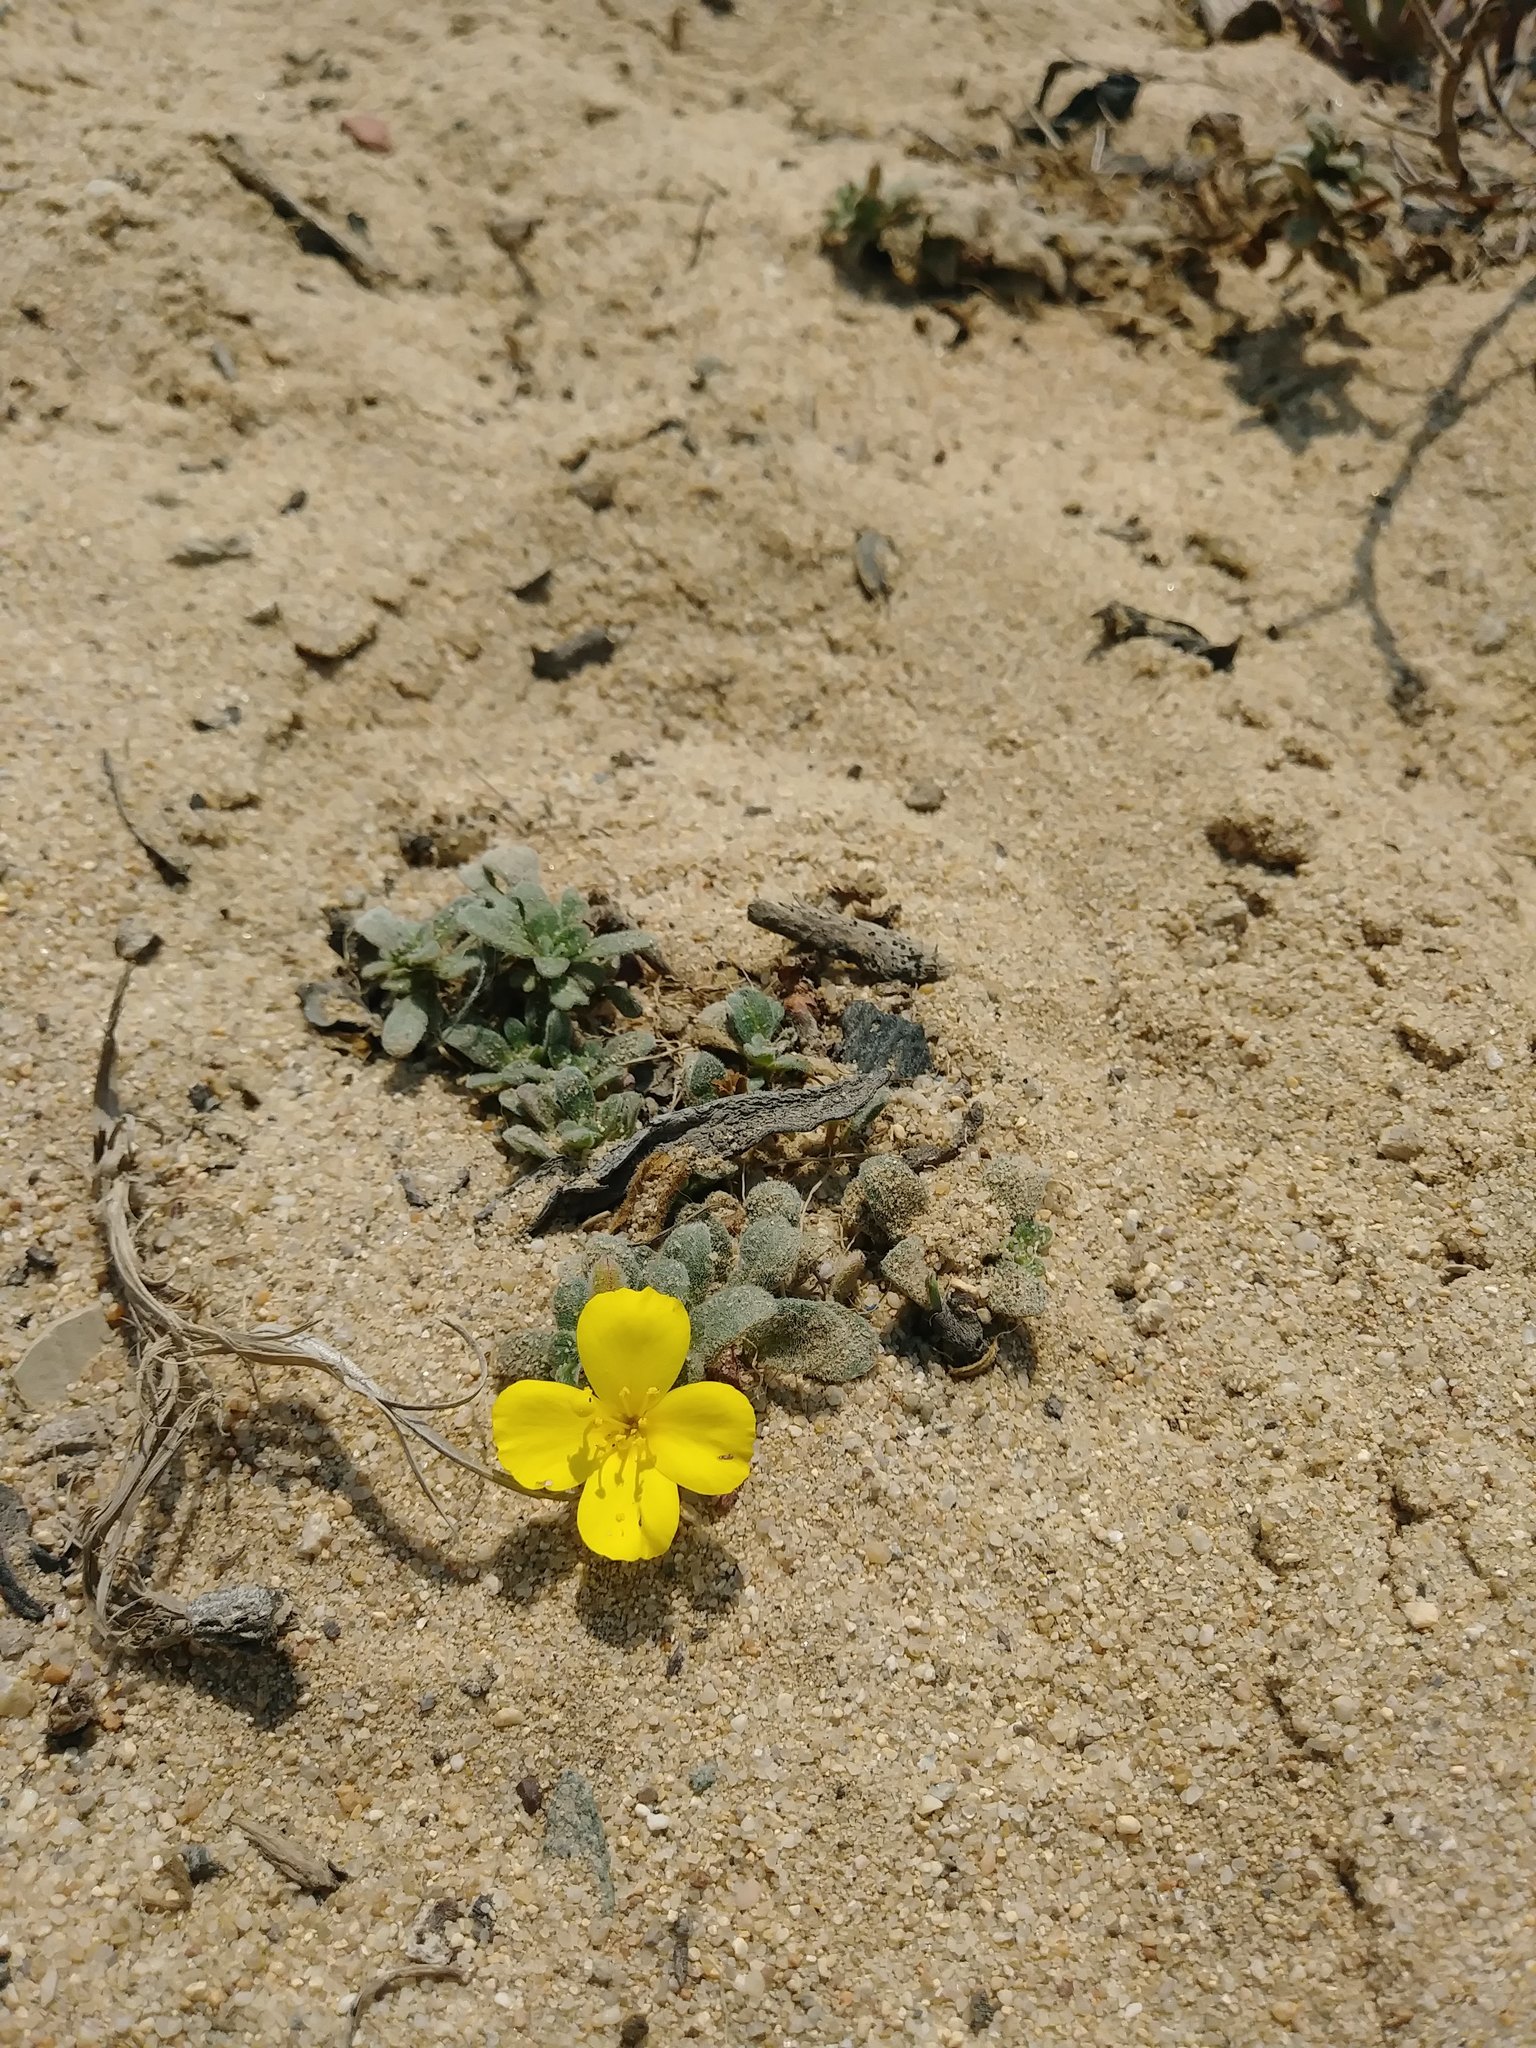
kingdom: Plantae
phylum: Tracheophyta
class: Magnoliopsida
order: Myrtales
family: Onagraceae
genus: Camissoniopsis
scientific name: Camissoniopsis cheiranthifolia
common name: Beach suncup
